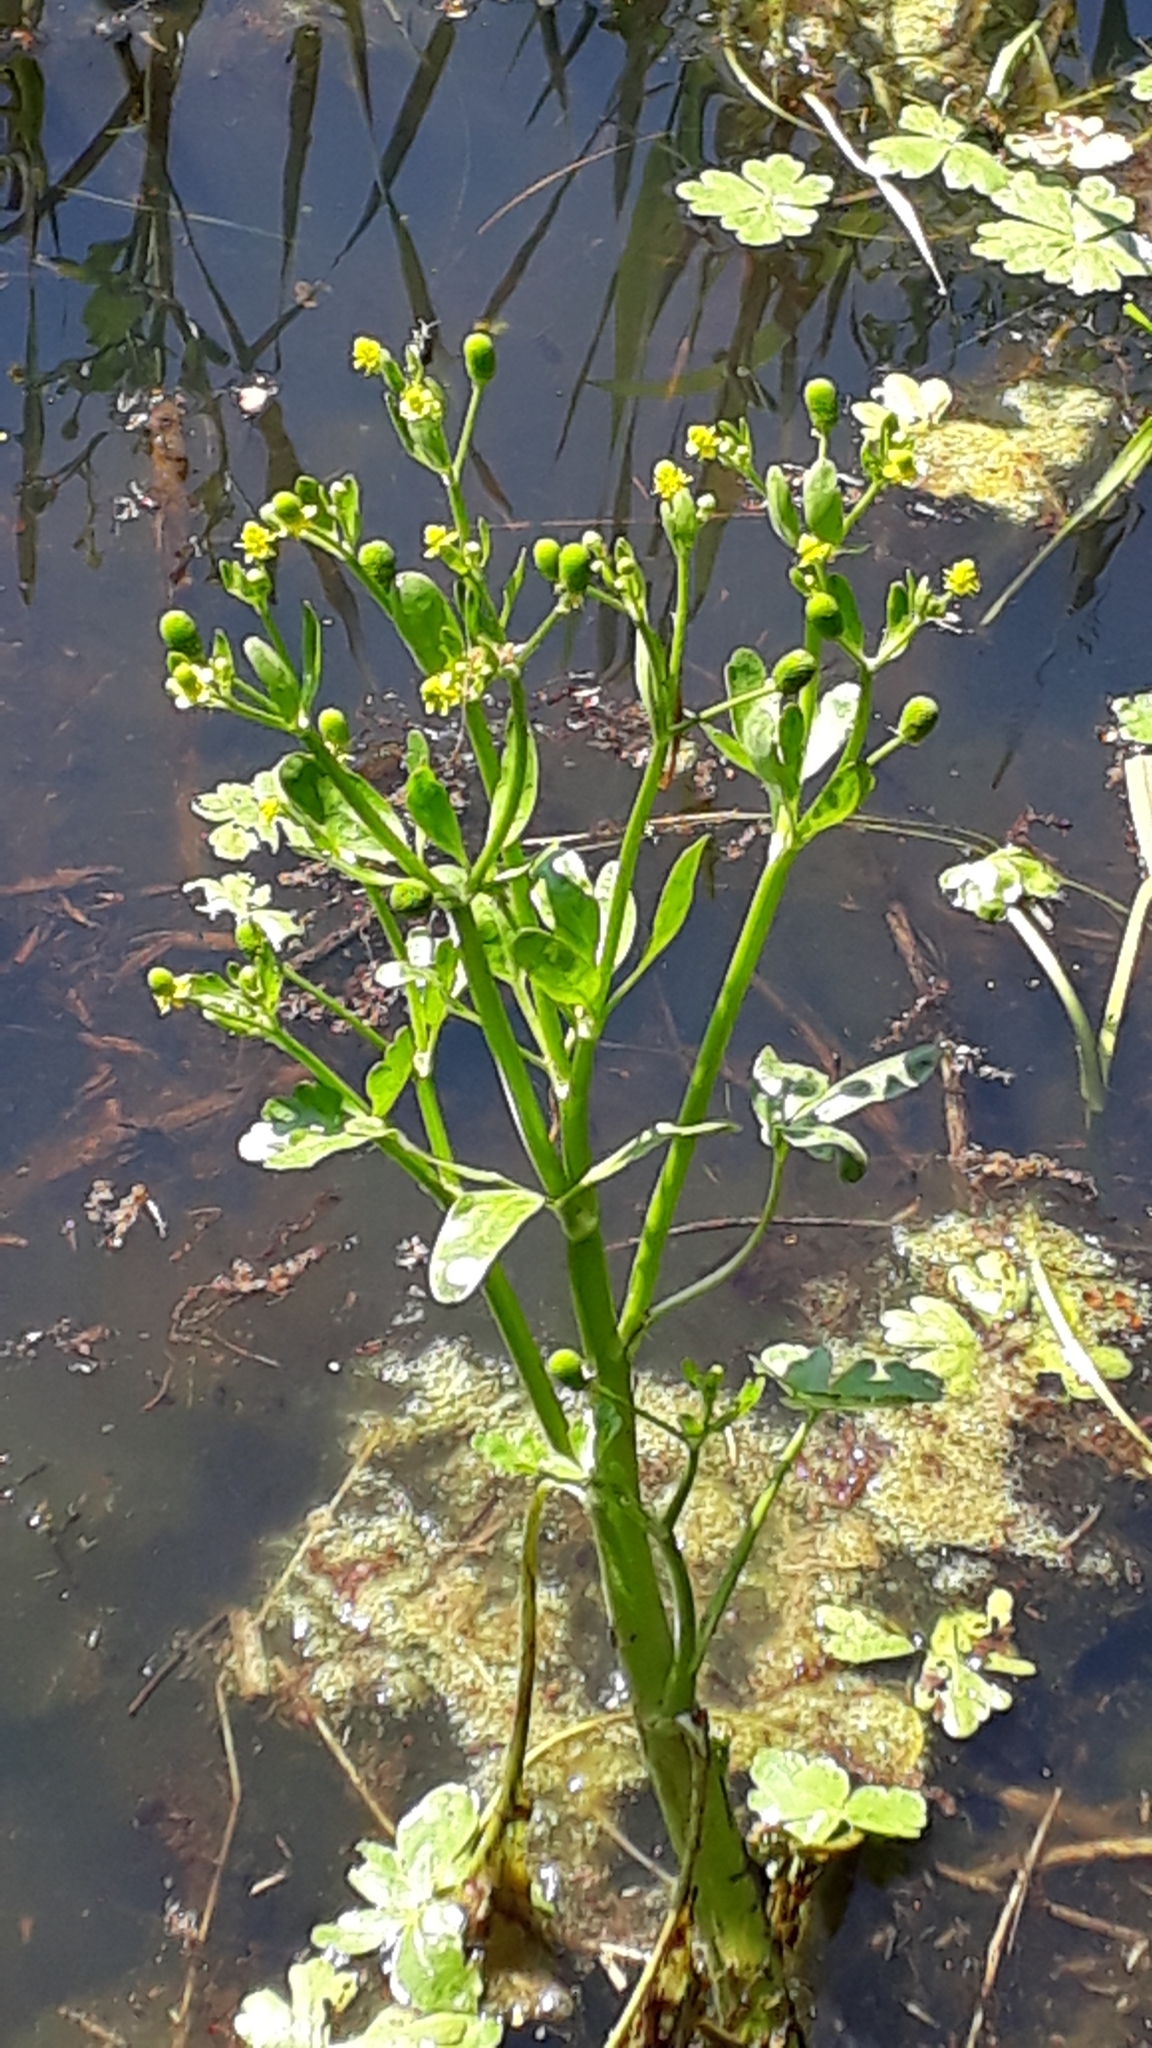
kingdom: Plantae
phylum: Tracheophyta
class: Magnoliopsida
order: Ranunculales
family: Ranunculaceae
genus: Ranunculus
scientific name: Ranunculus sceleratus
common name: Celery-leaved buttercup
